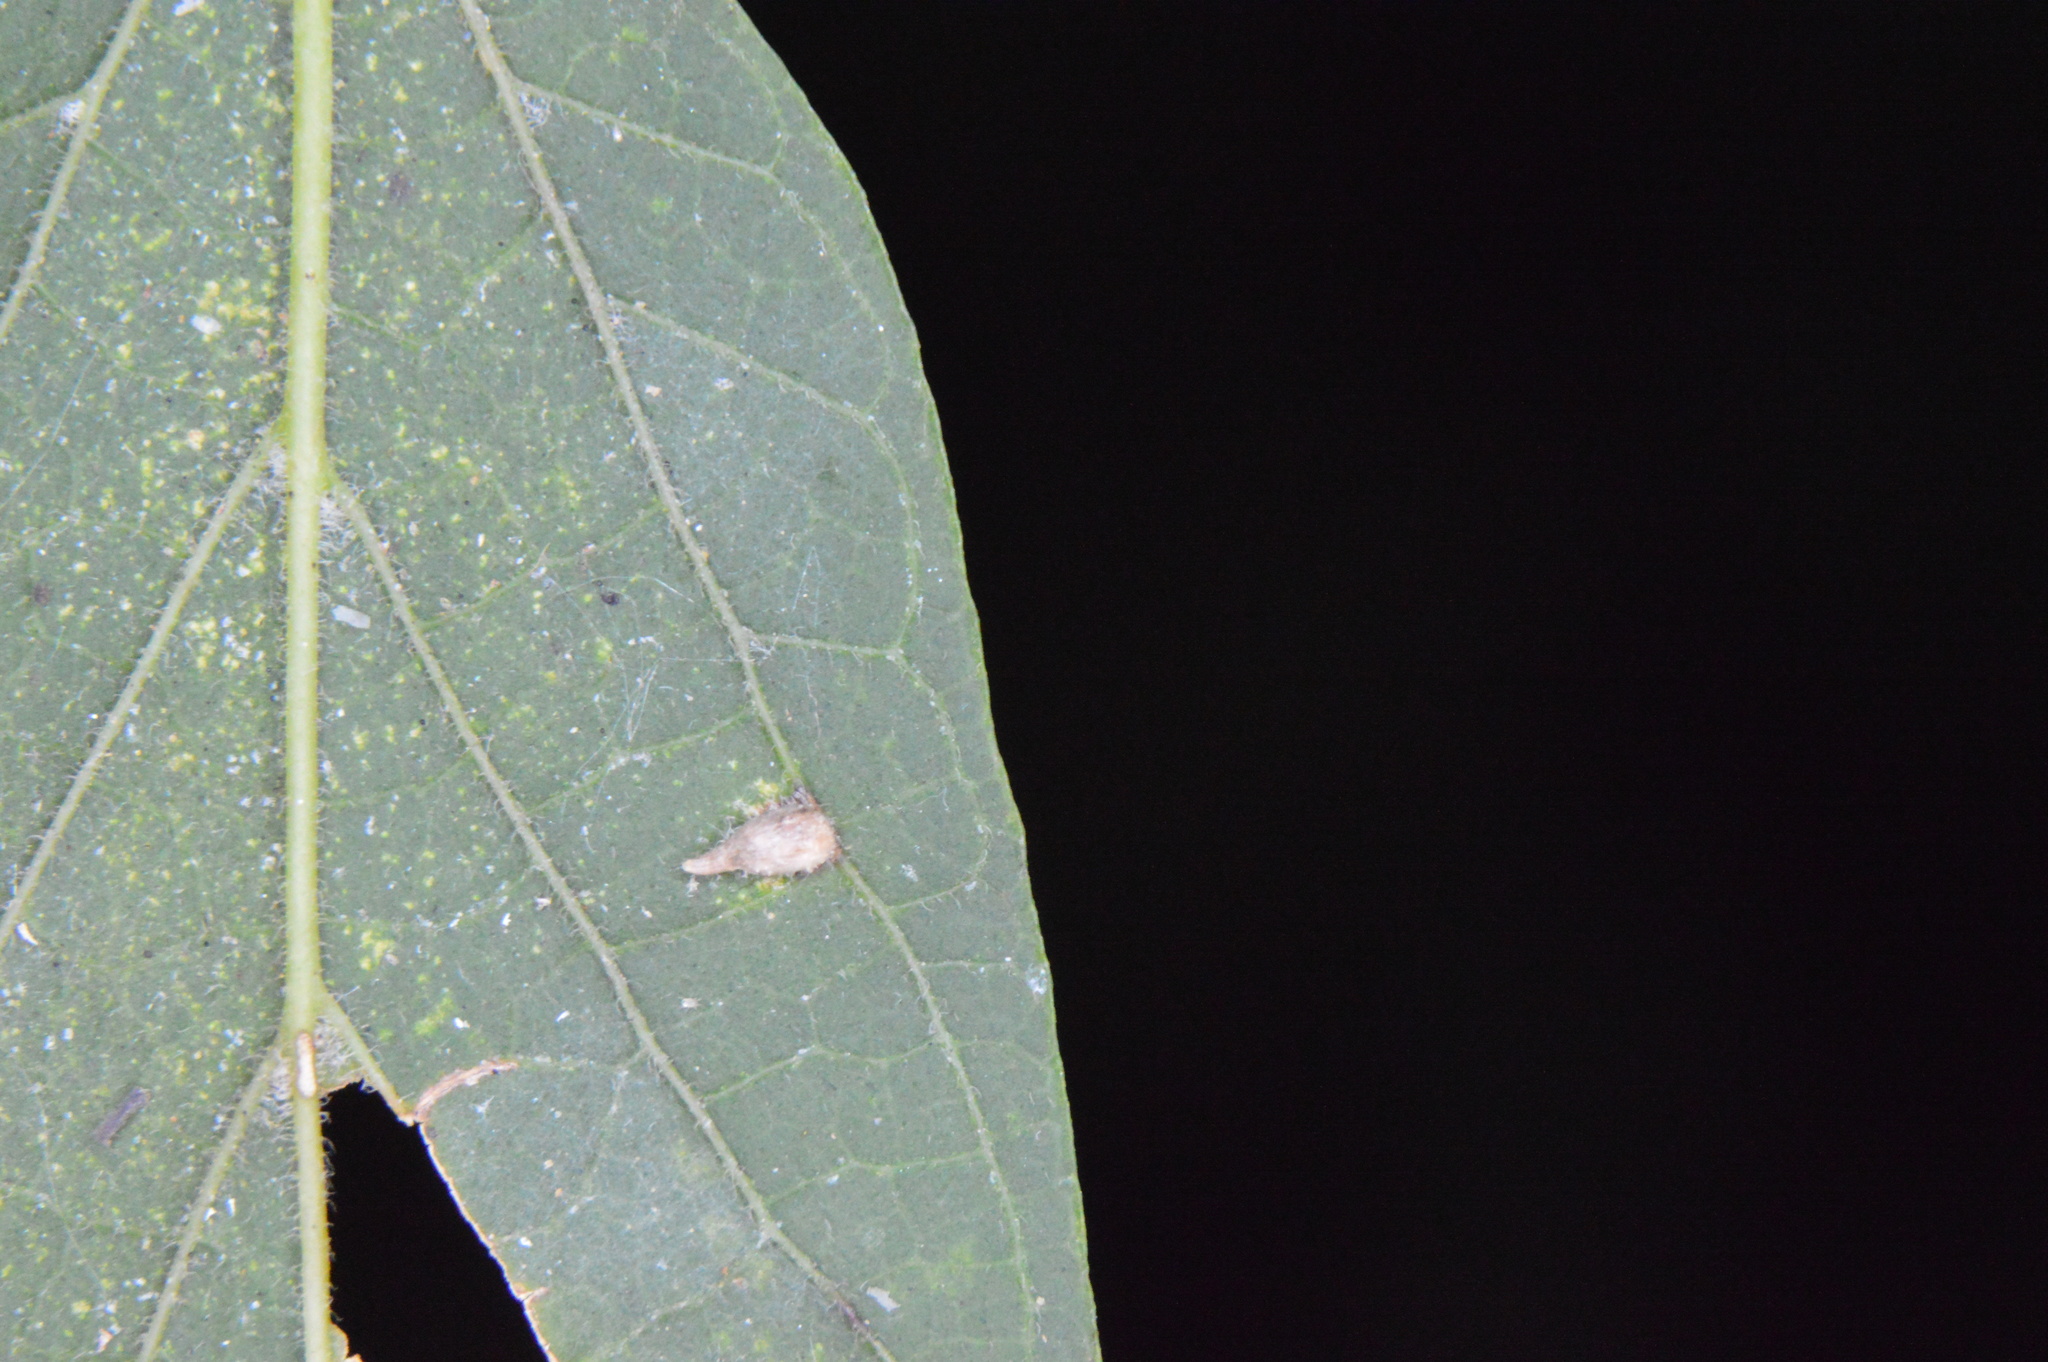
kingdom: Animalia
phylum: Arthropoda
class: Insecta
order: Diptera
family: Cecidomyiidae
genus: Celticecis
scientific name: Celticecis supina
